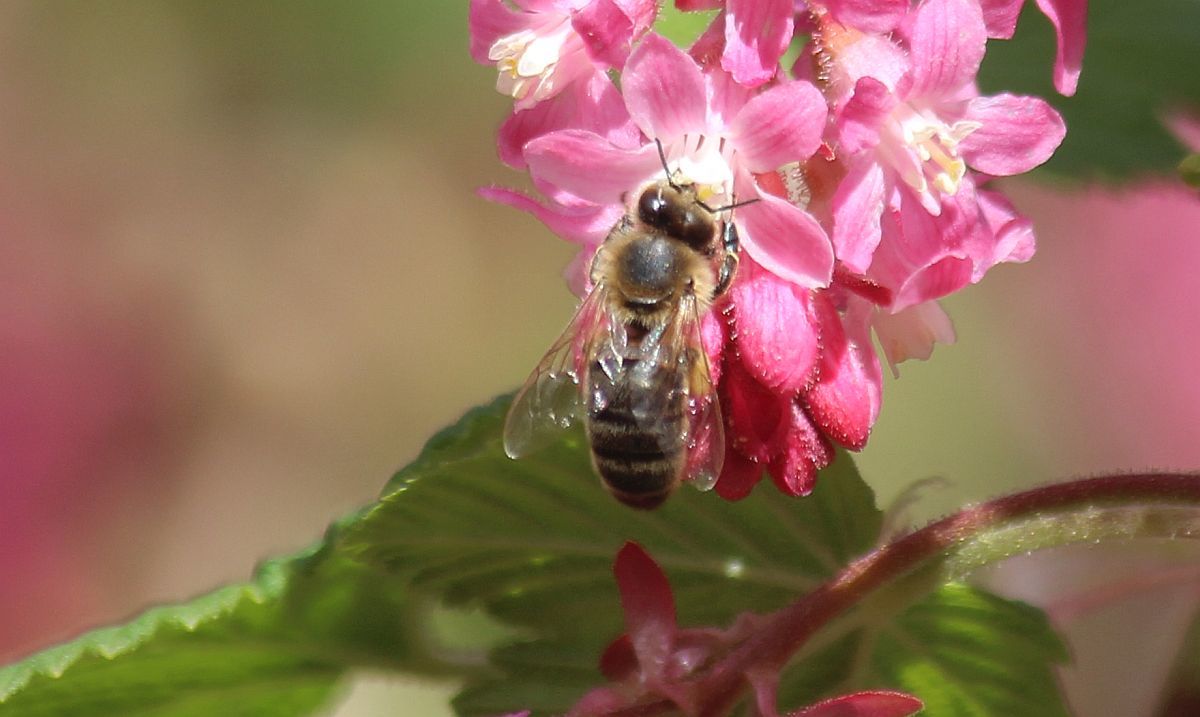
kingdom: Animalia
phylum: Arthropoda
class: Insecta
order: Hymenoptera
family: Apidae
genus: Apis
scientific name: Apis mellifera
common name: Honey bee
